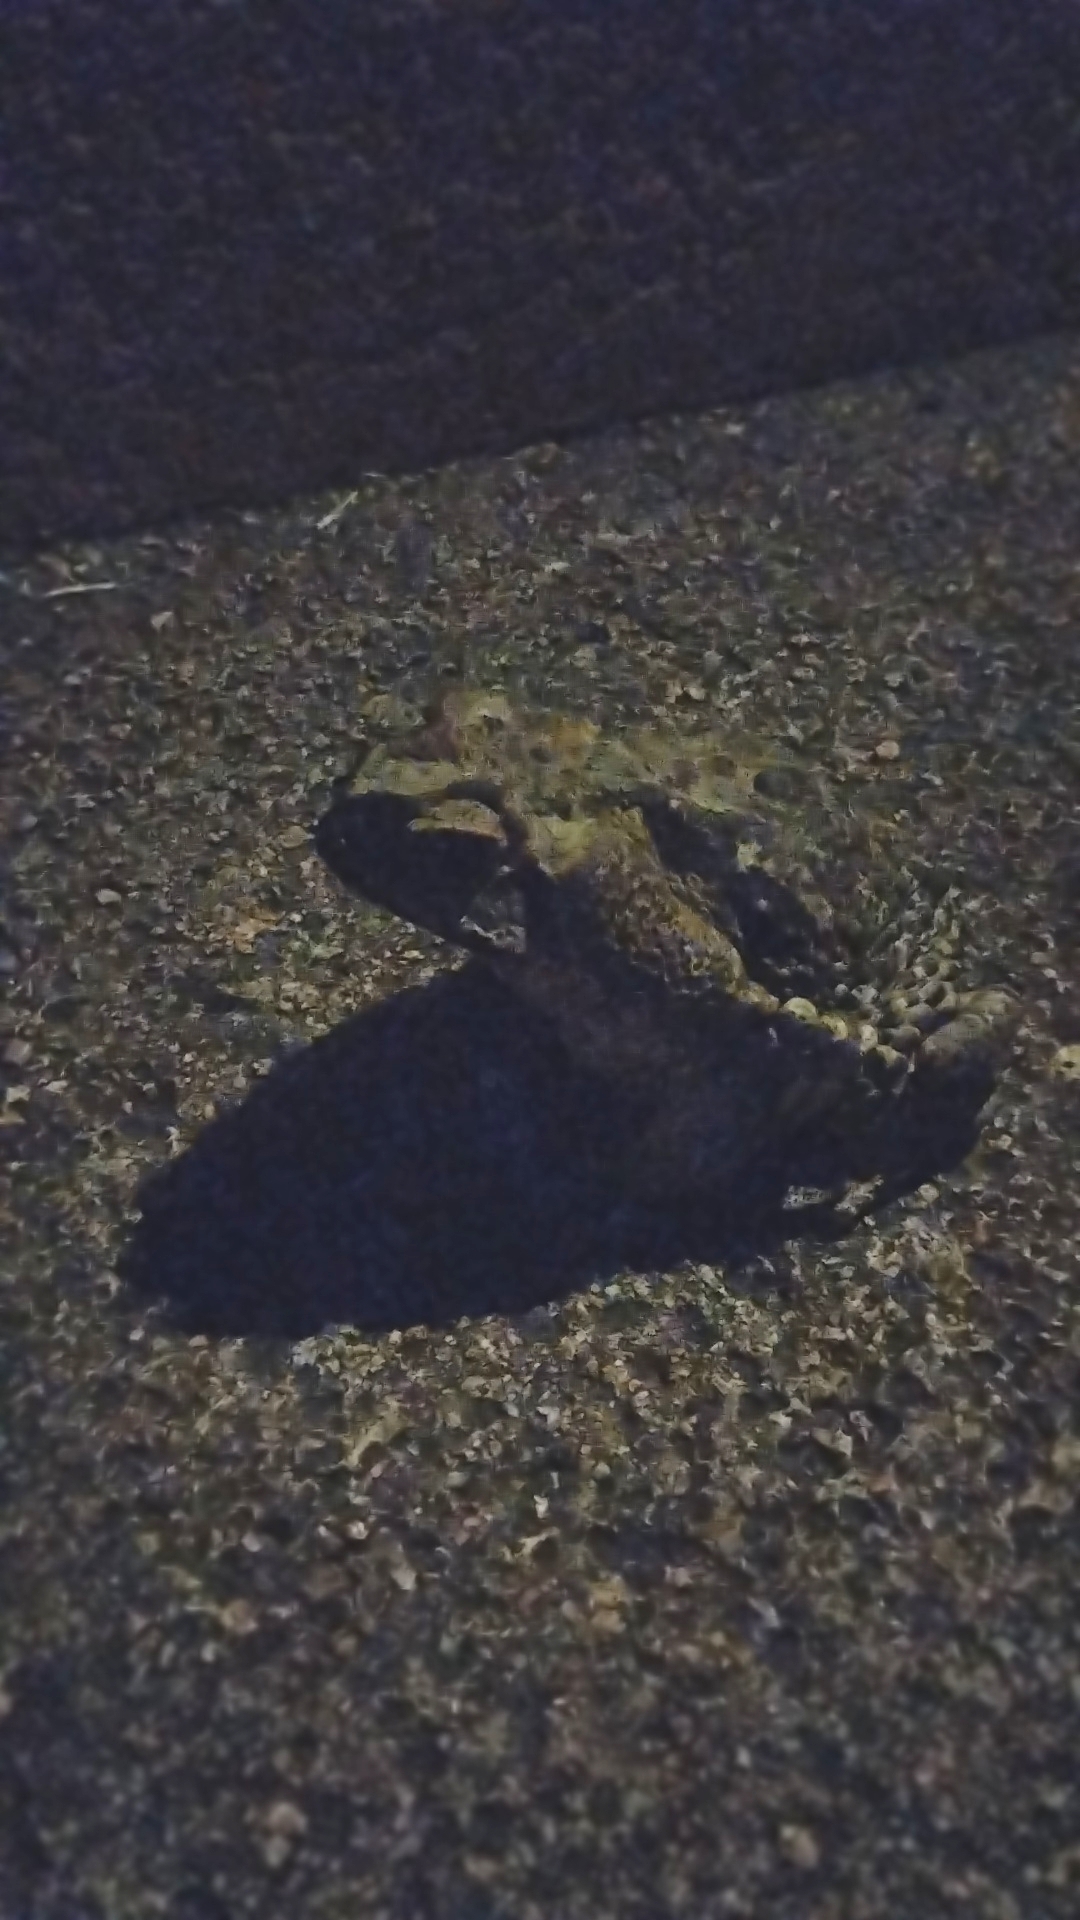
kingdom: Animalia
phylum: Chordata
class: Amphibia
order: Anura
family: Bufonidae
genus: Rhinella
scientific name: Rhinella diptycha
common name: Cope's toad
